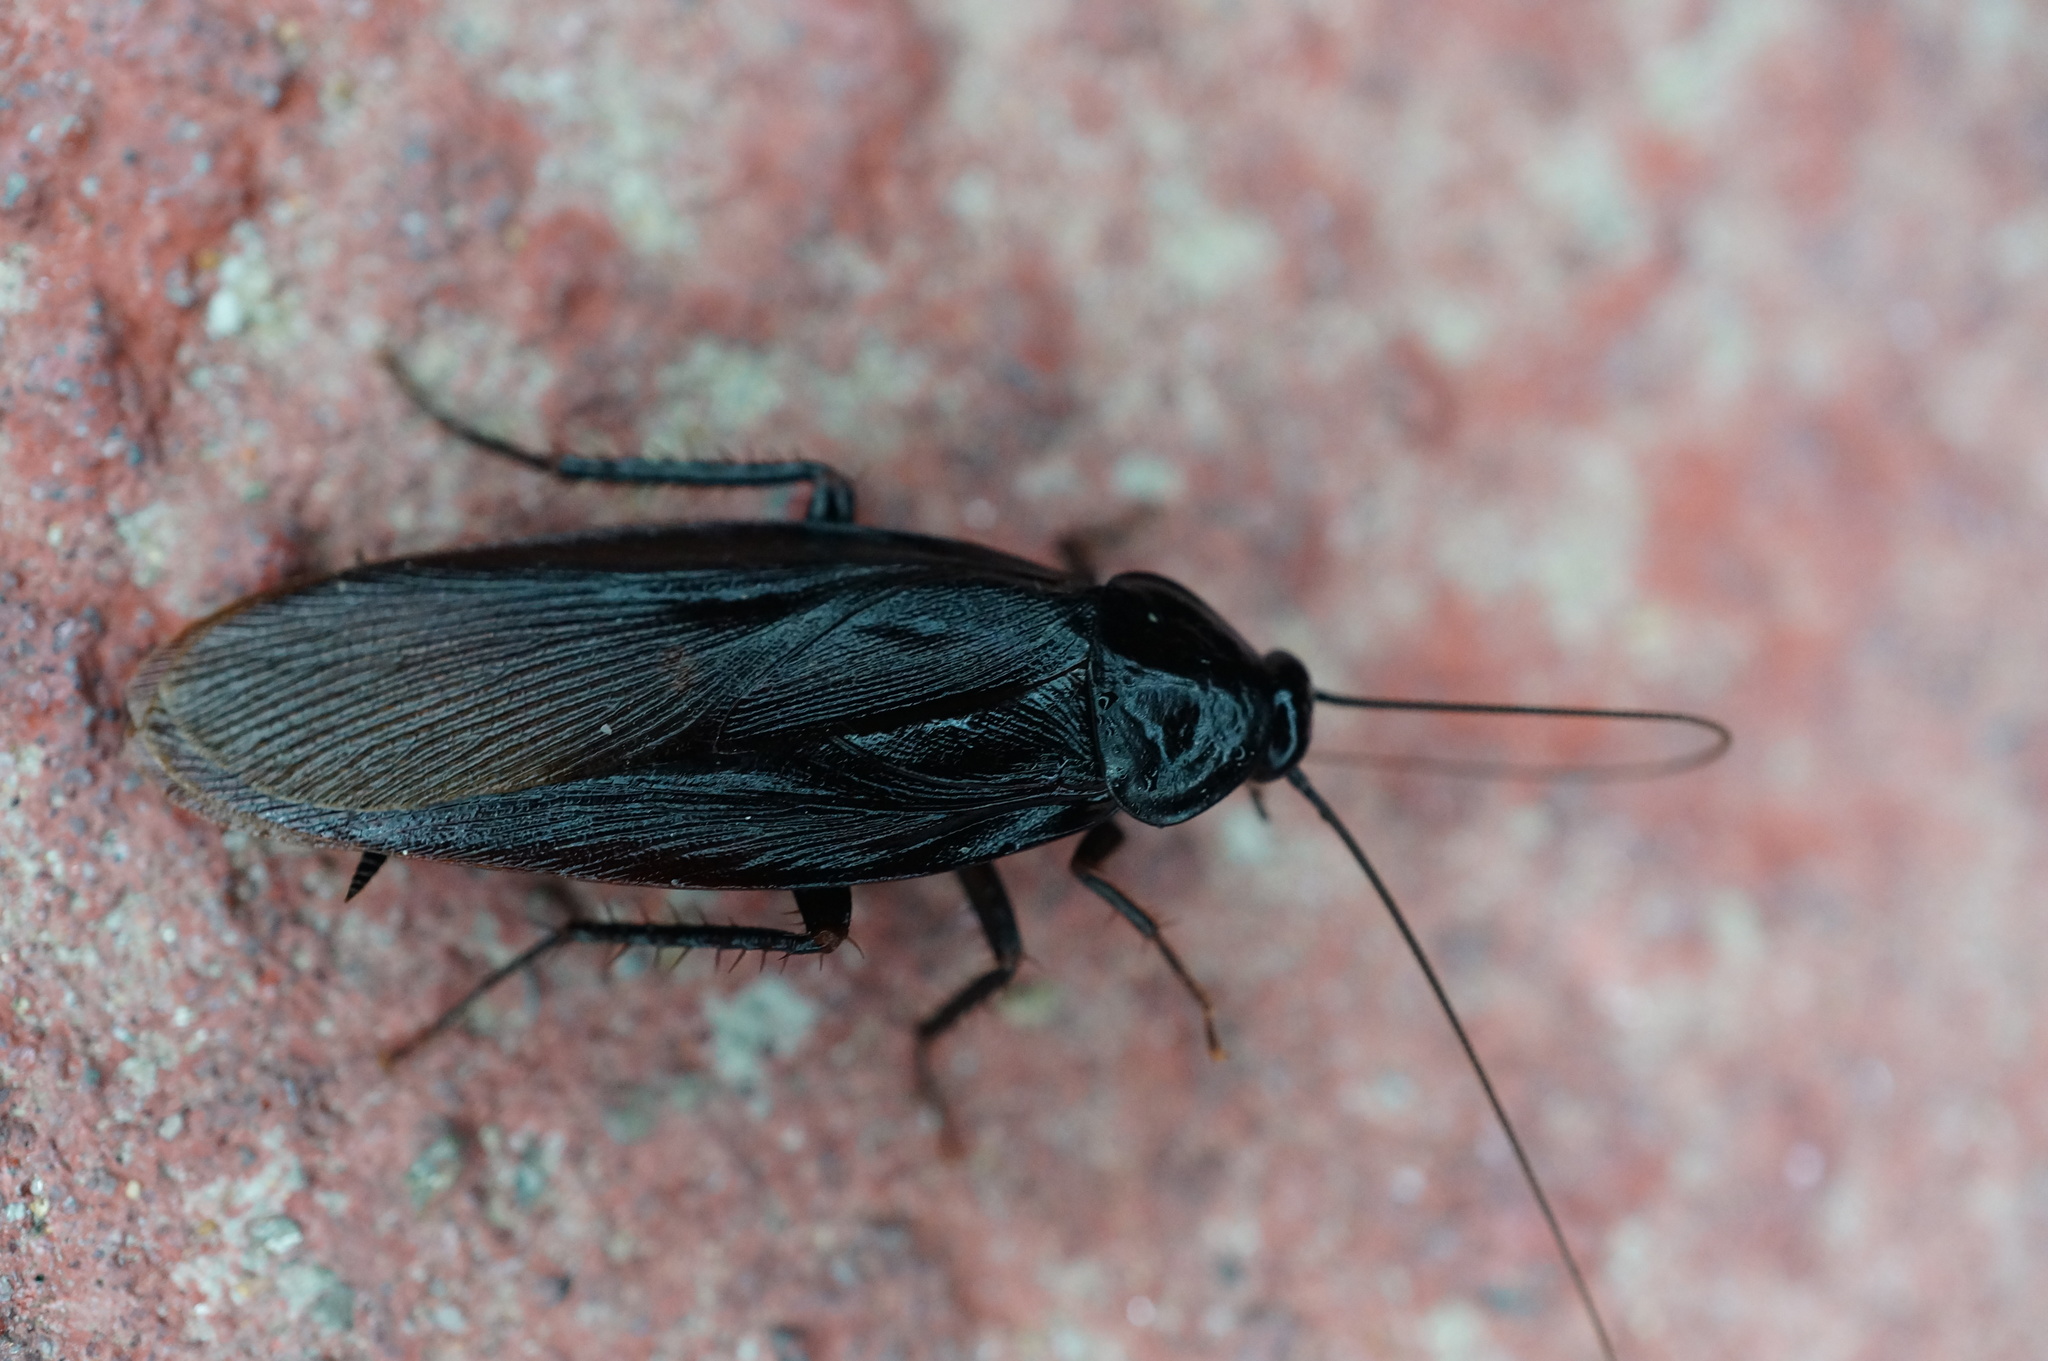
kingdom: Animalia
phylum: Arthropoda
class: Insecta
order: Blattodea
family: Blattidae
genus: Periplaneta
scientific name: Periplaneta japonica
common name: Japanese cockroach
